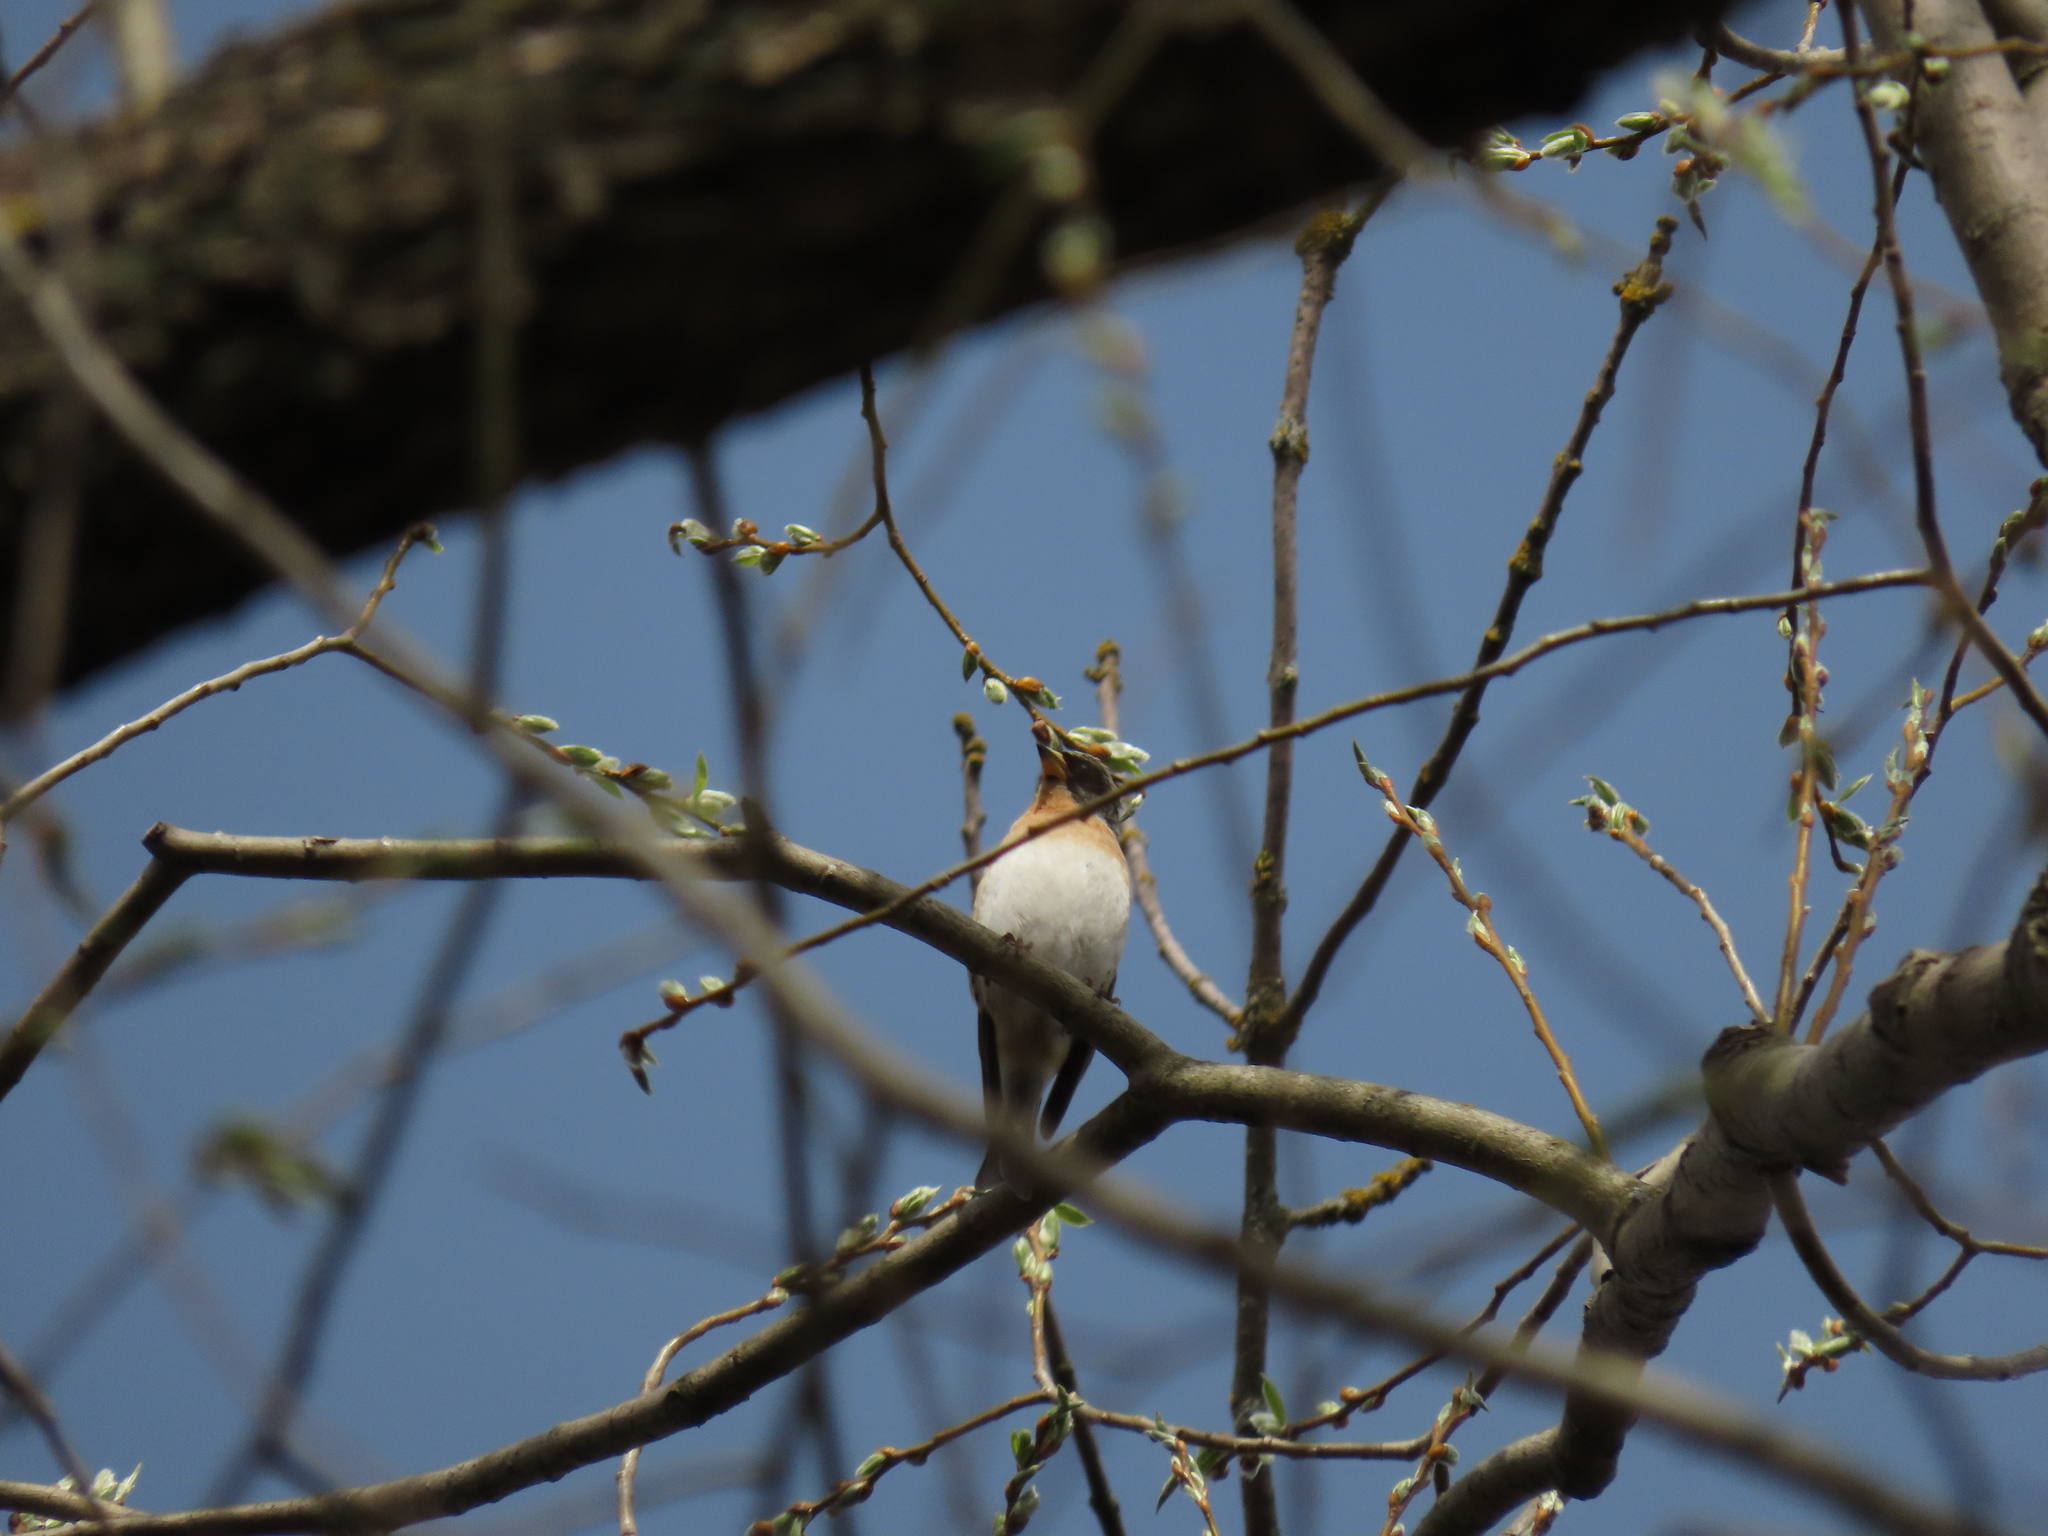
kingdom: Animalia
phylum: Chordata
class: Aves
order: Passeriformes
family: Fringillidae
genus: Fringilla
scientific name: Fringilla montifringilla
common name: Brambling
